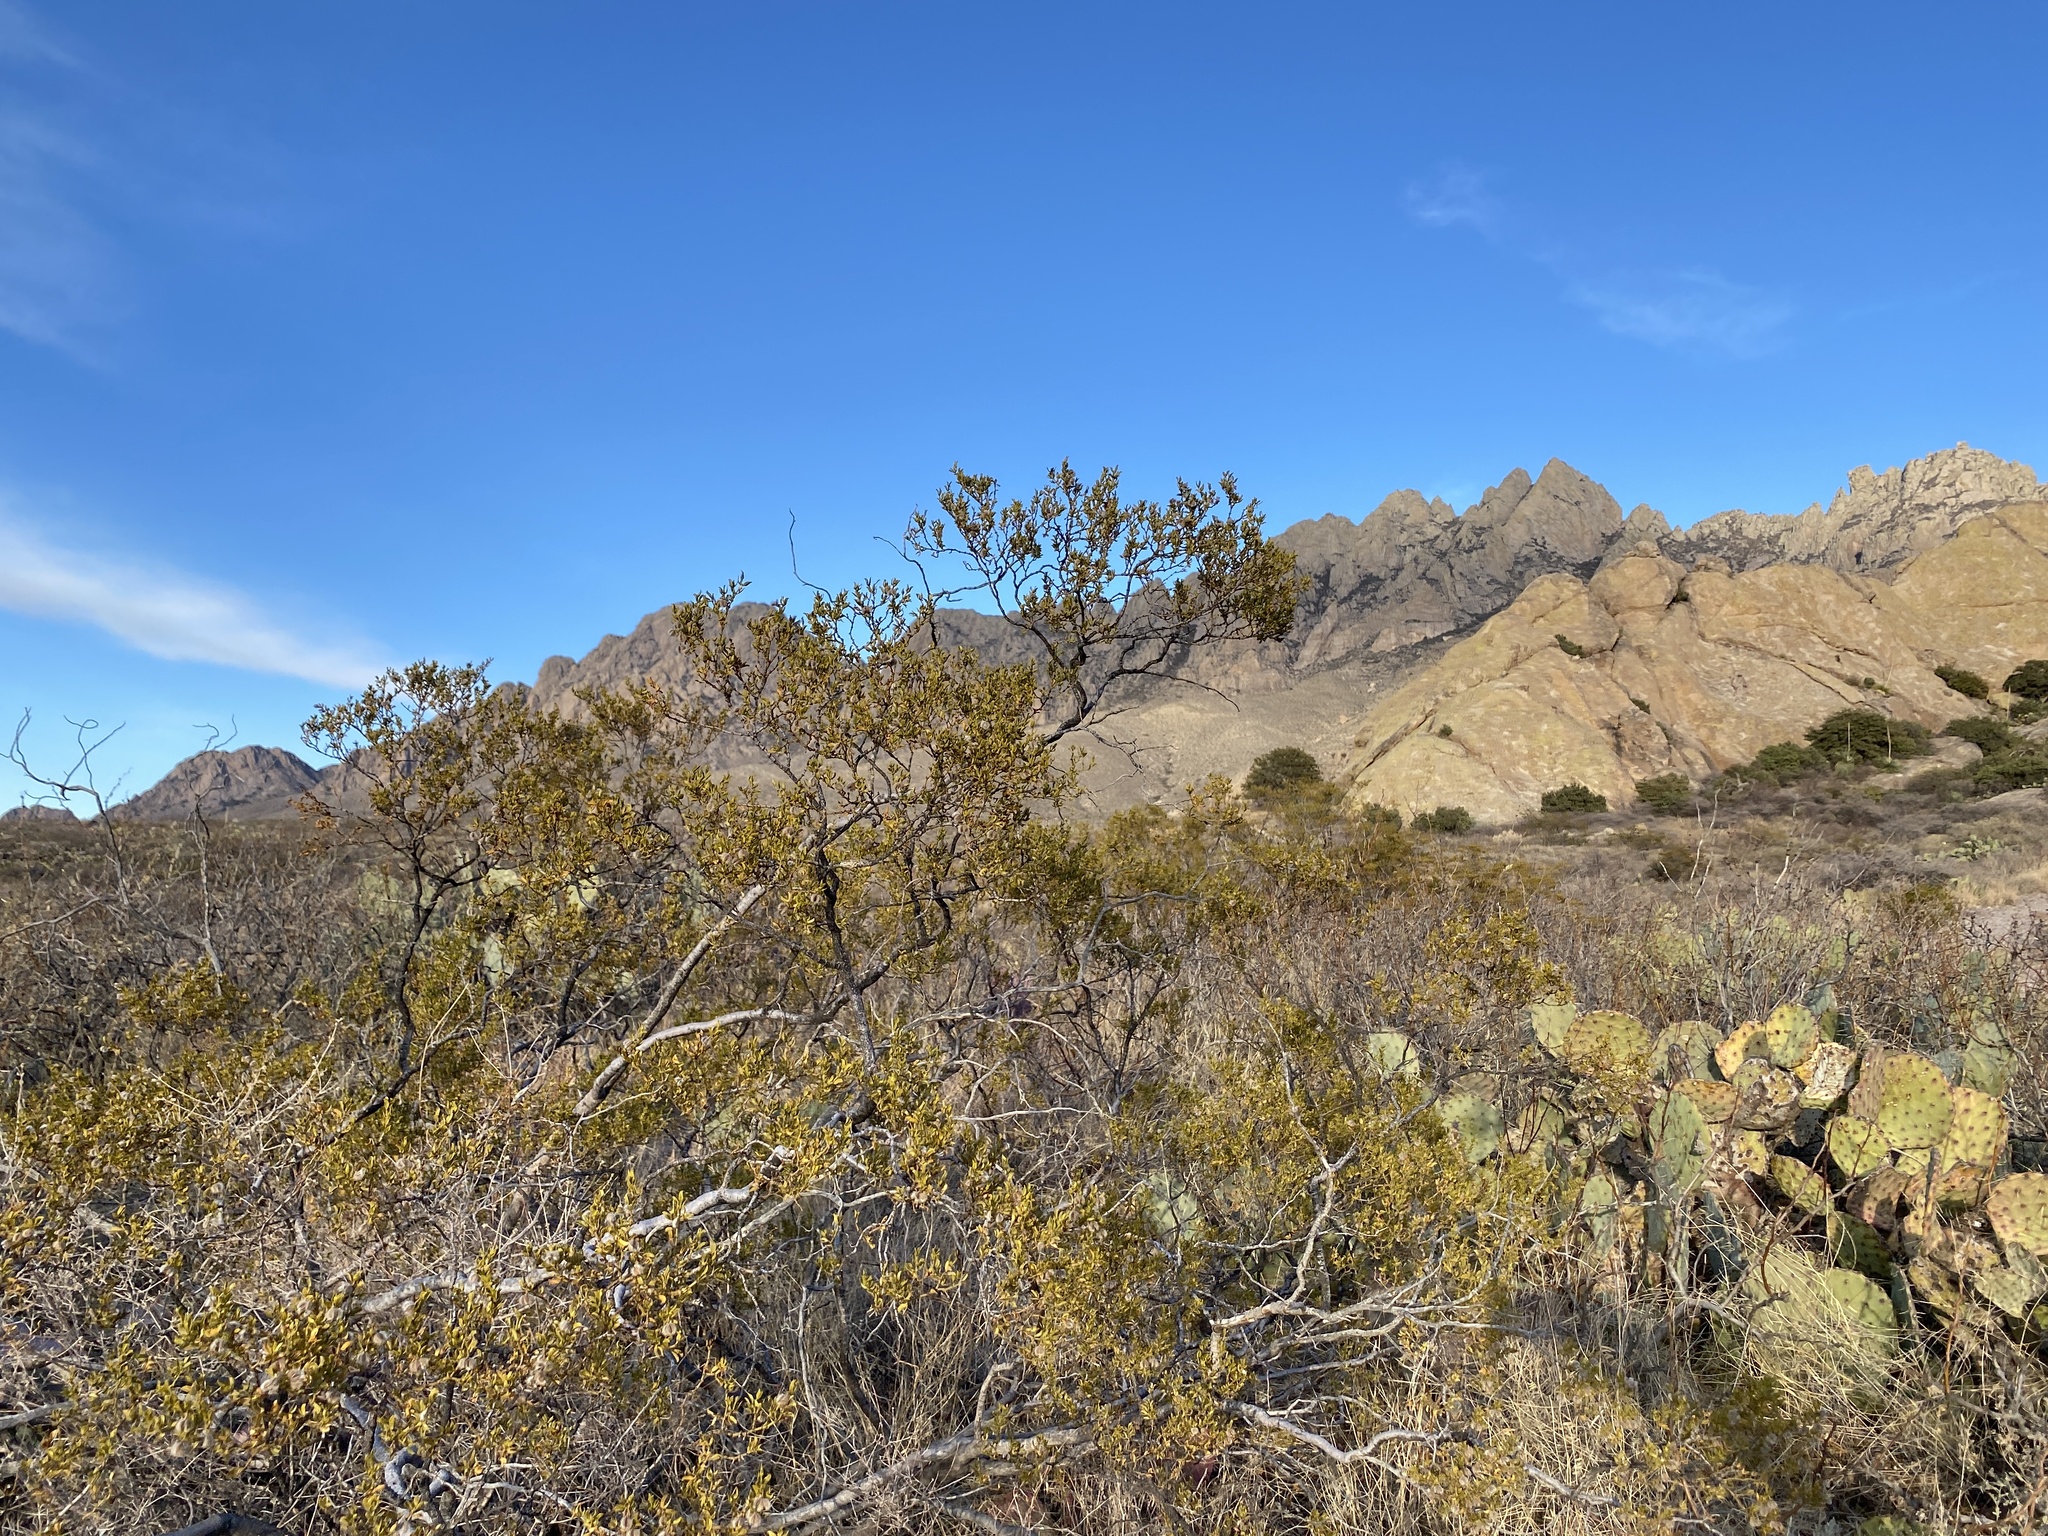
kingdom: Plantae
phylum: Tracheophyta
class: Magnoliopsida
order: Zygophyllales
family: Zygophyllaceae
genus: Larrea
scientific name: Larrea tridentata
